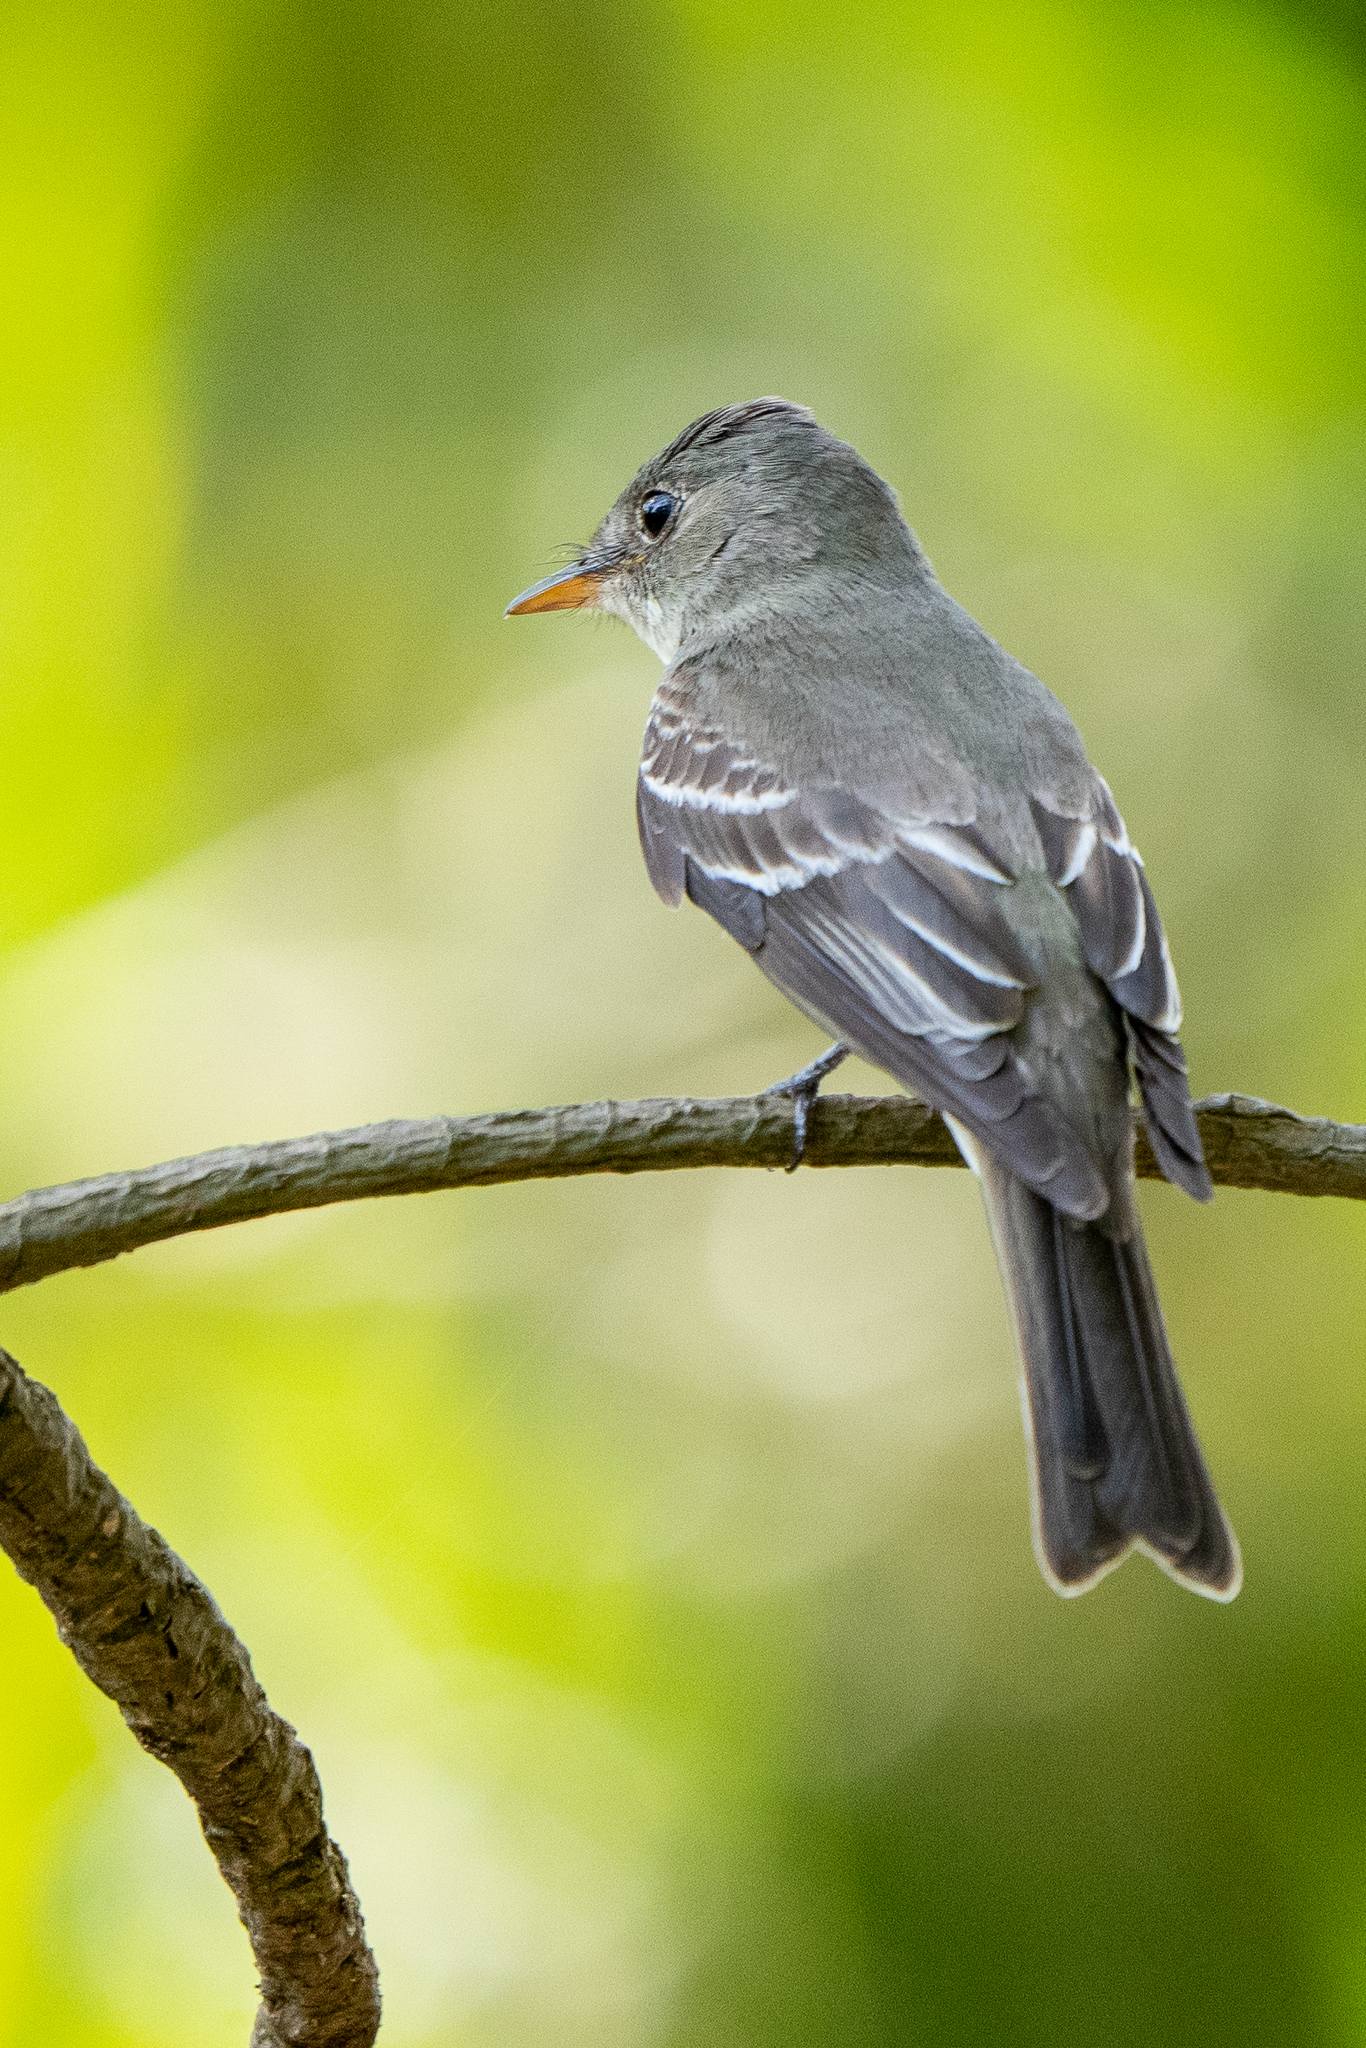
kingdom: Animalia
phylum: Chordata
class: Aves
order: Passeriformes
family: Tyrannidae
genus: Contopus
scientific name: Contopus virens
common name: Eastern wood-pewee
